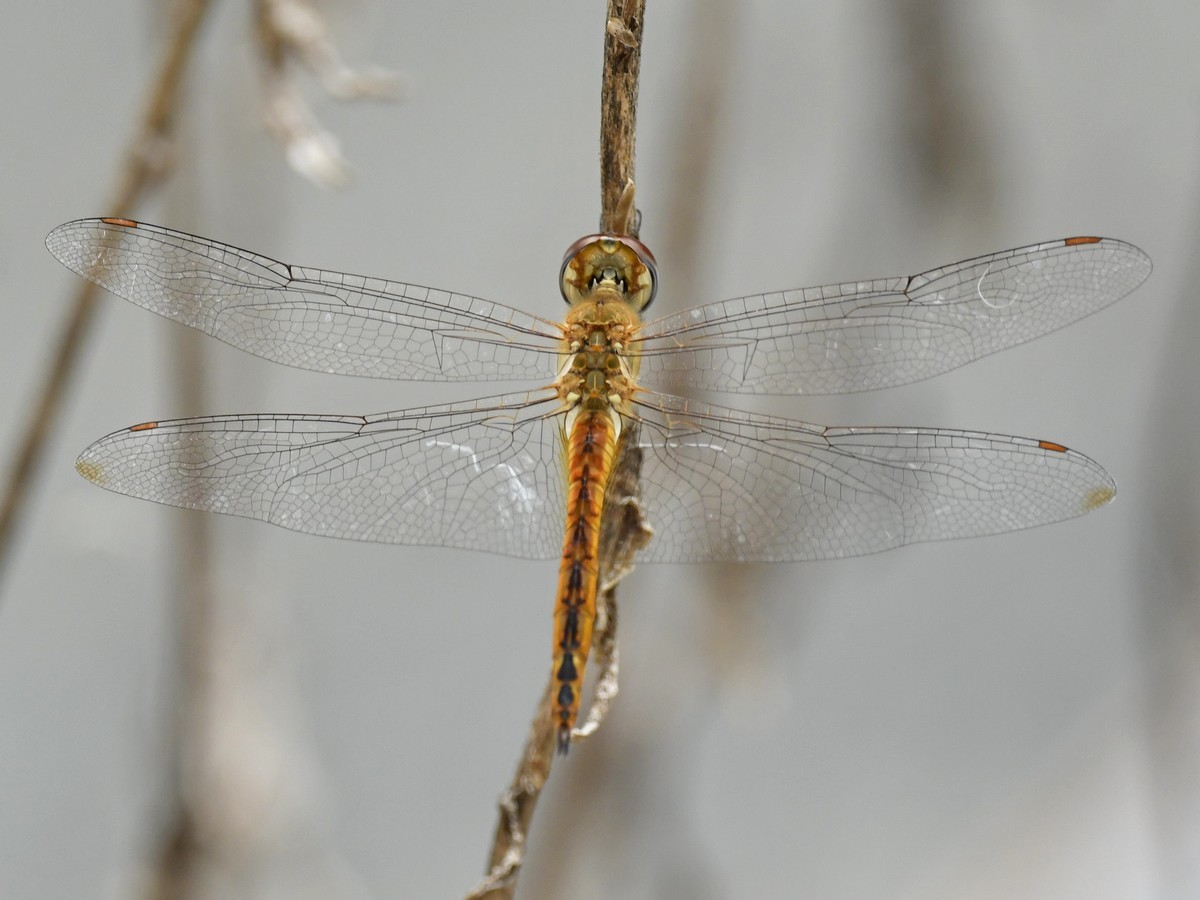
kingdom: Animalia
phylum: Arthropoda
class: Insecta
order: Odonata
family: Libellulidae
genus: Pantala
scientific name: Pantala flavescens
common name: Wandering glider
